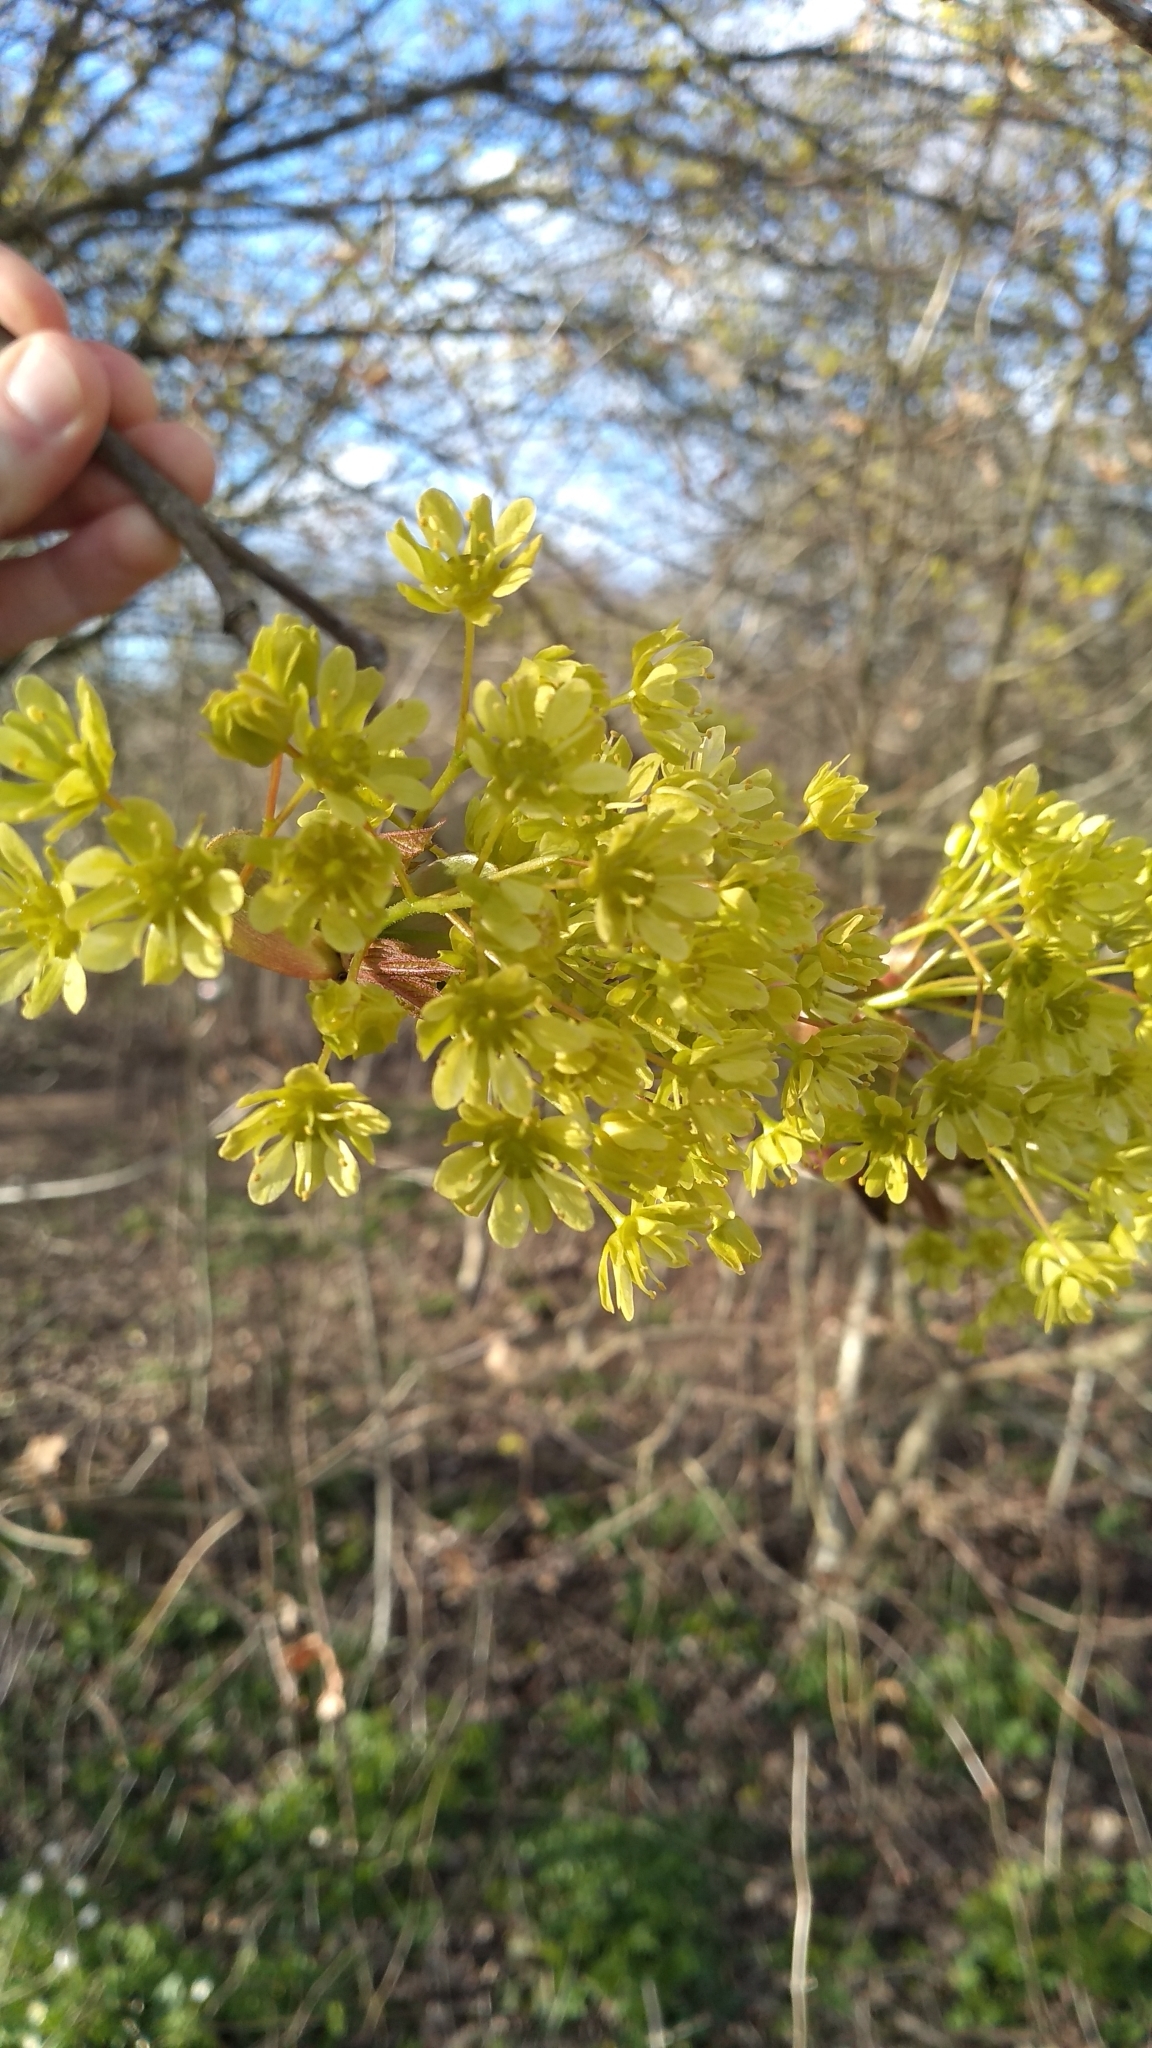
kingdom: Plantae
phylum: Tracheophyta
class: Magnoliopsida
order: Sapindales
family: Sapindaceae
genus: Acer
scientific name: Acer platanoides
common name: Norway maple
